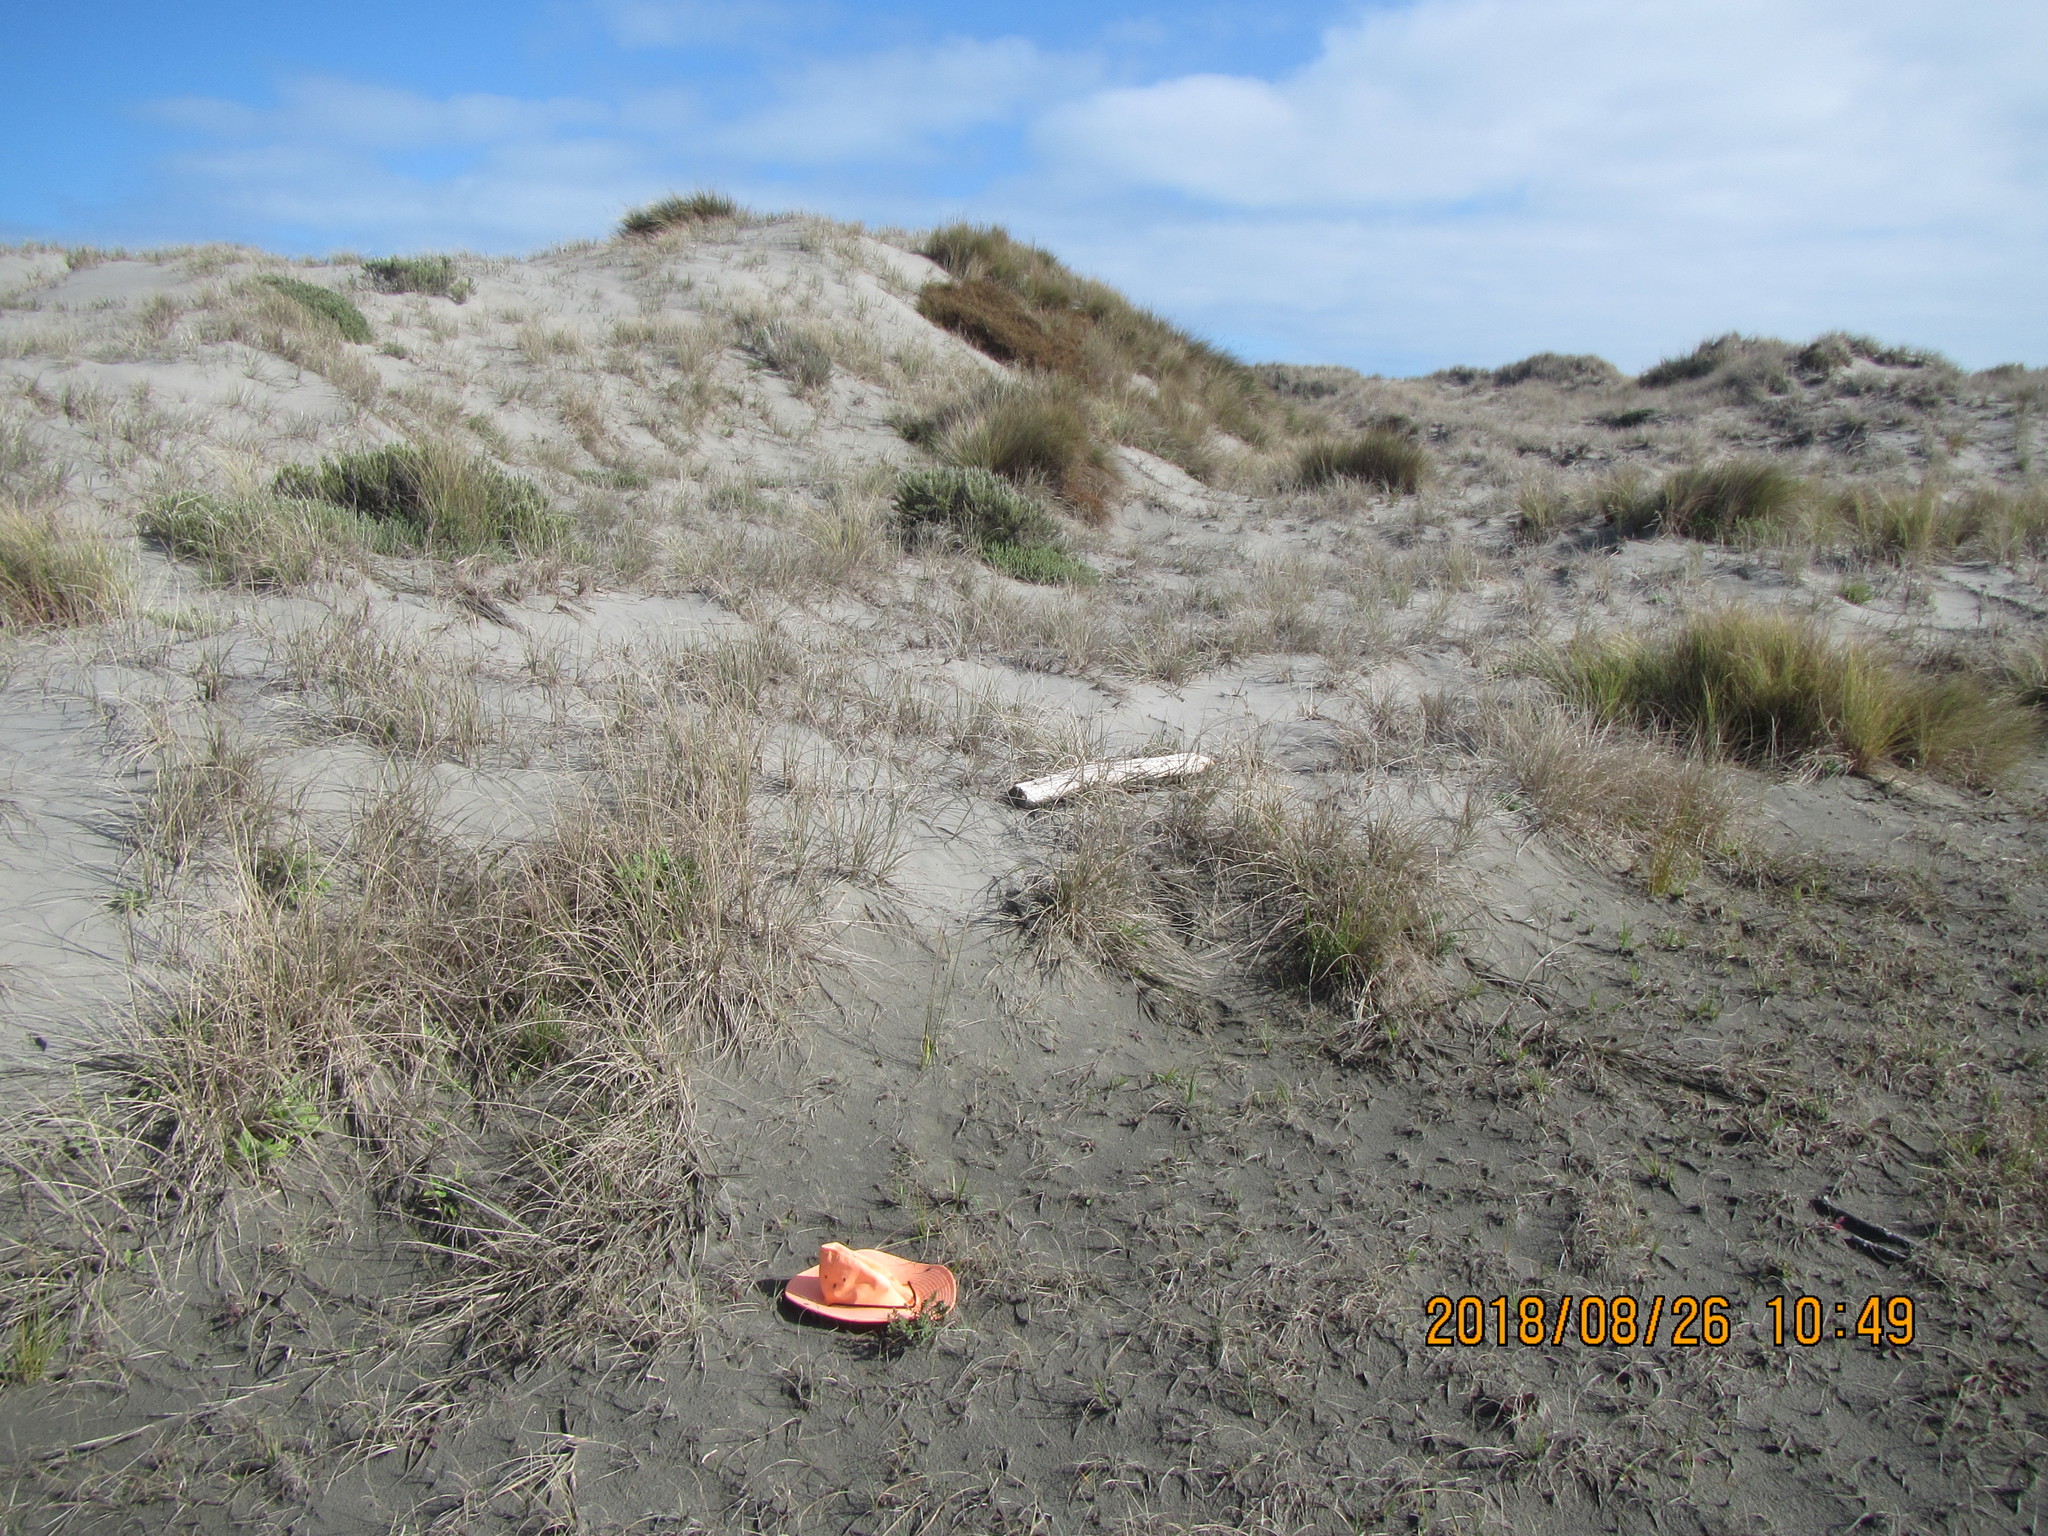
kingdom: Plantae
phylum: Tracheophyta
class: Magnoliopsida
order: Malvales
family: Thymelaeaceae
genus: Pimelea
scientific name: Pimelea villosa
